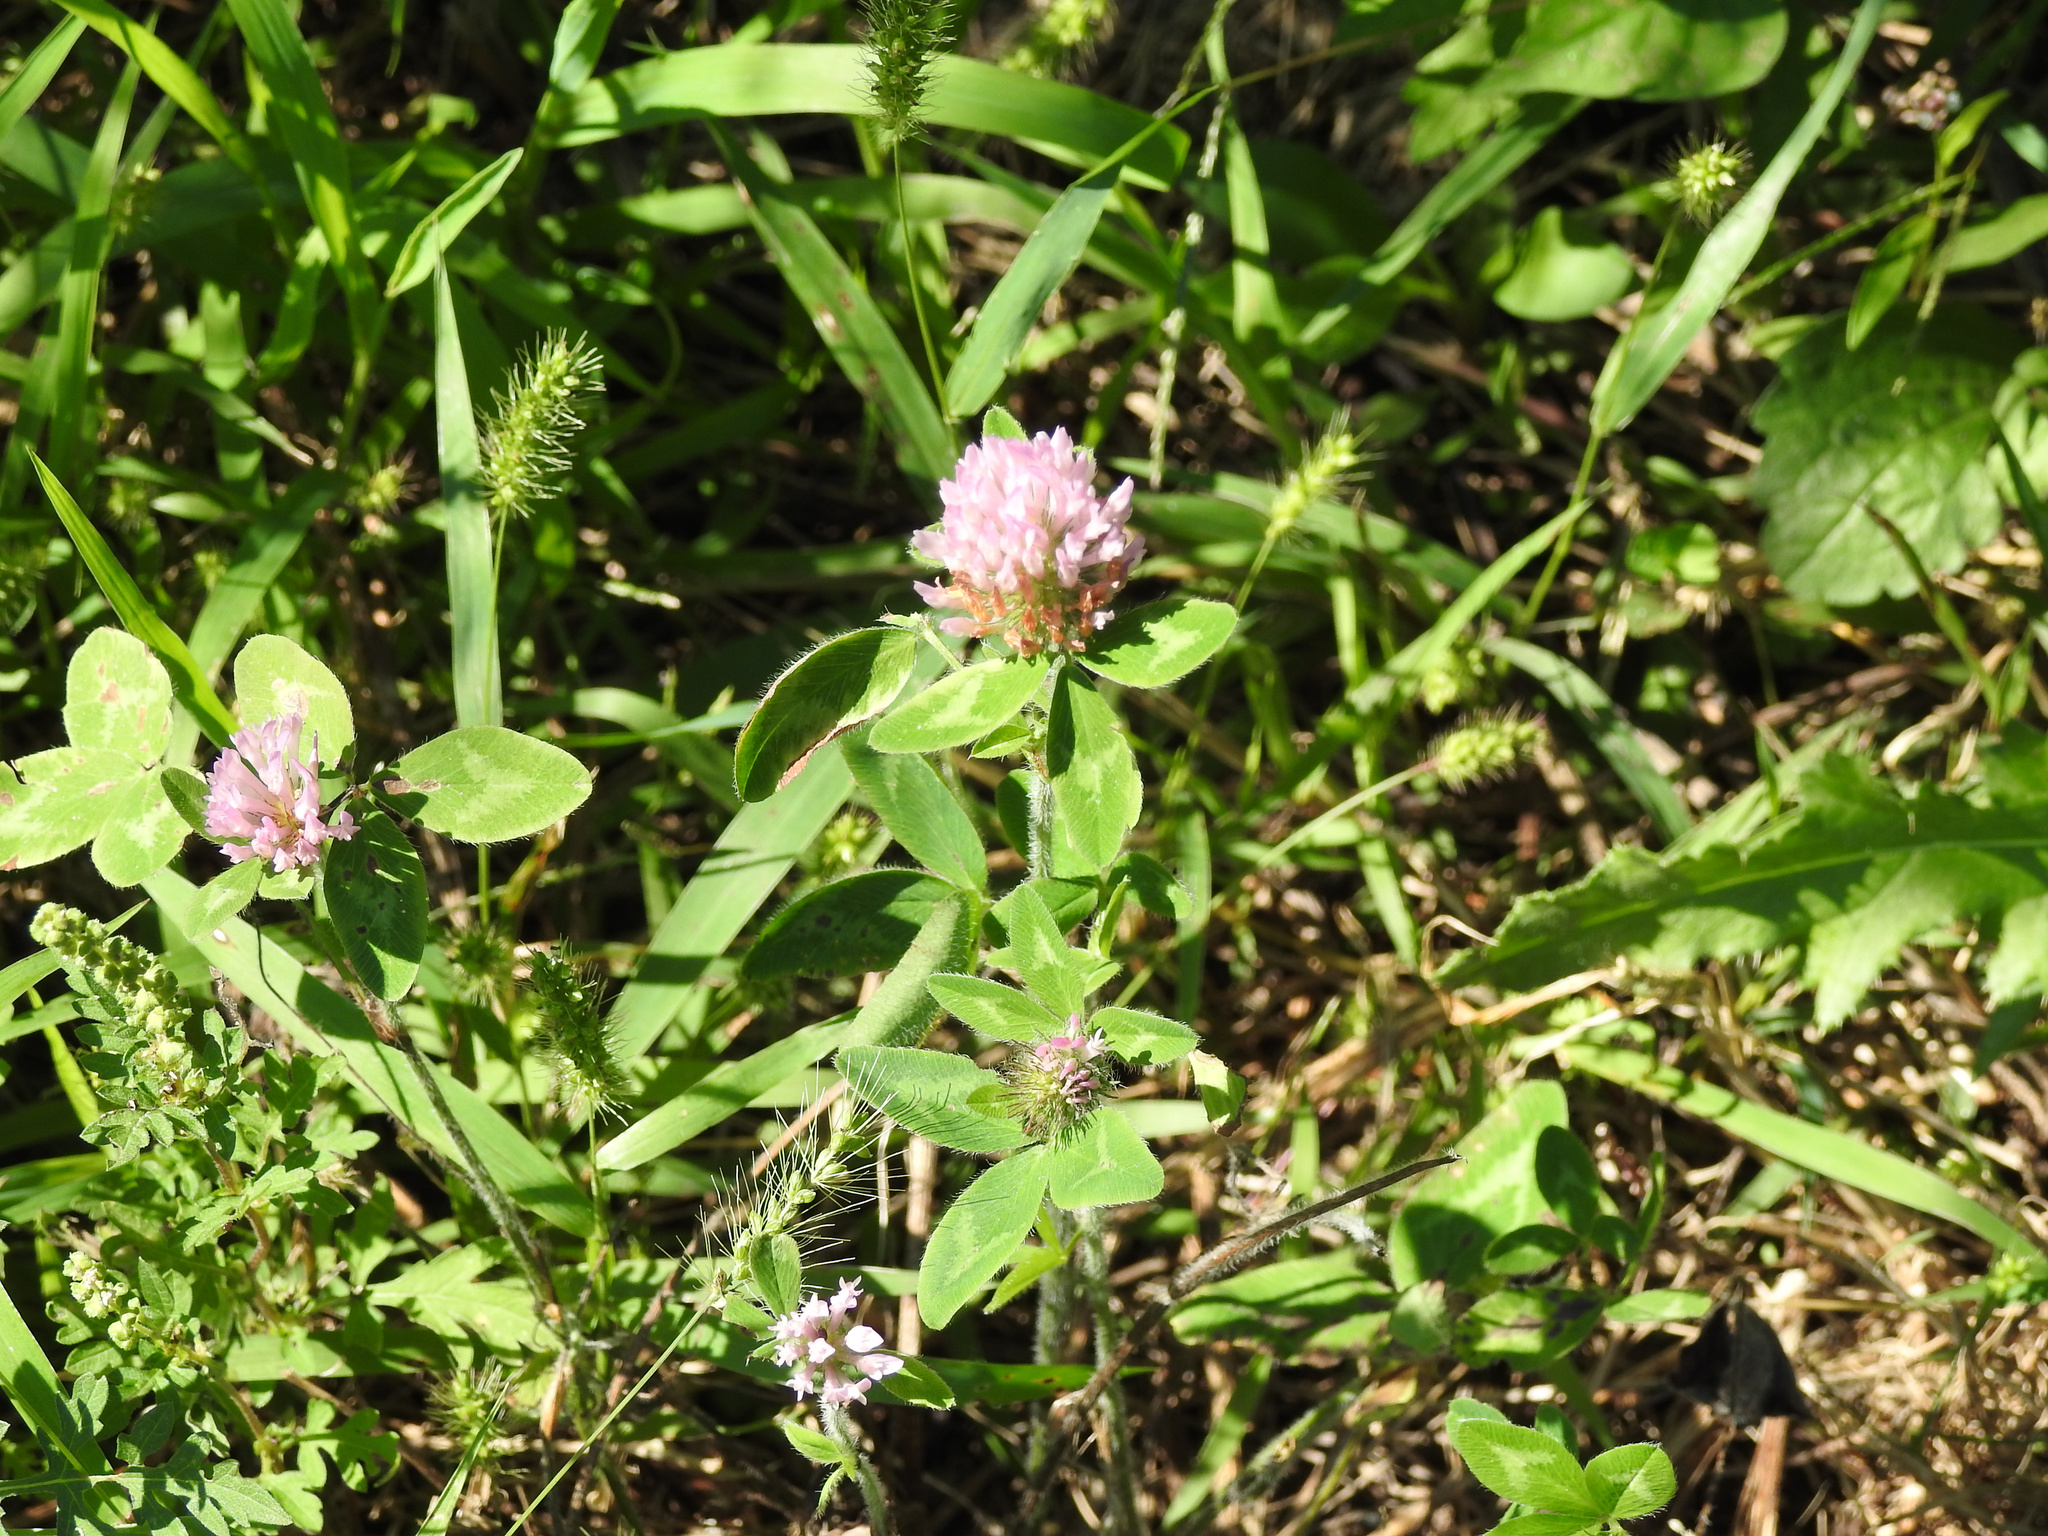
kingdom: Plantae
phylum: Tracheophyta
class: Magnoliopsida
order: Fabales
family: Fabaceae
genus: Trifolium
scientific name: Trifolium pratense
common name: Red clover
